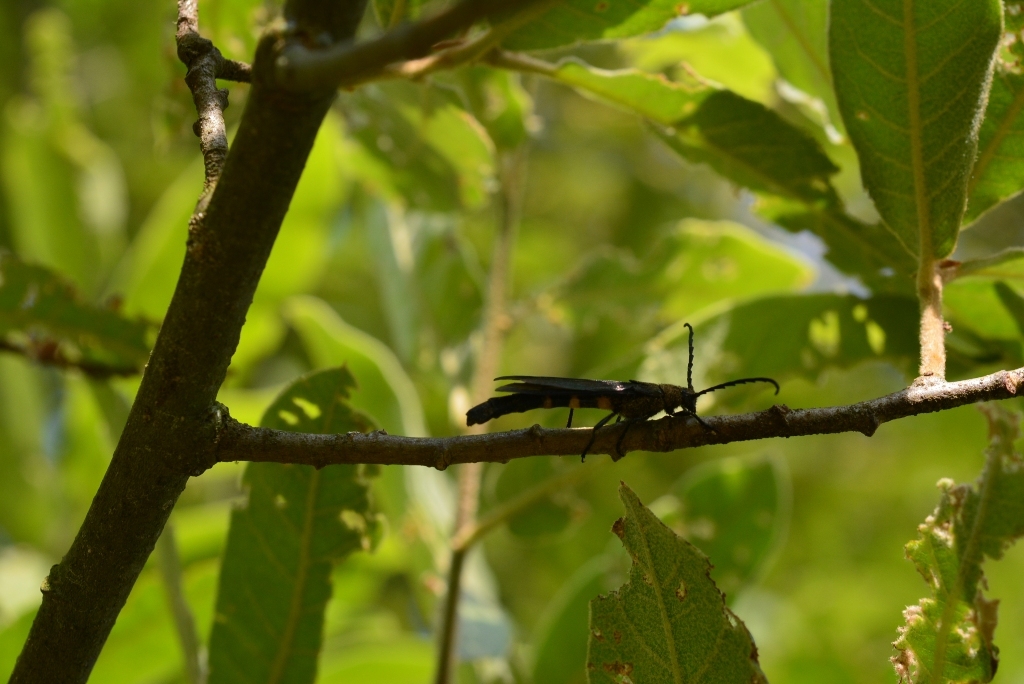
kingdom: Animalia
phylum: Arthropoda
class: Insecta
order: Coleoptera
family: Cerambycidae
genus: Rhathymoscelis
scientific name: Rhathymoscelis haldemanii
